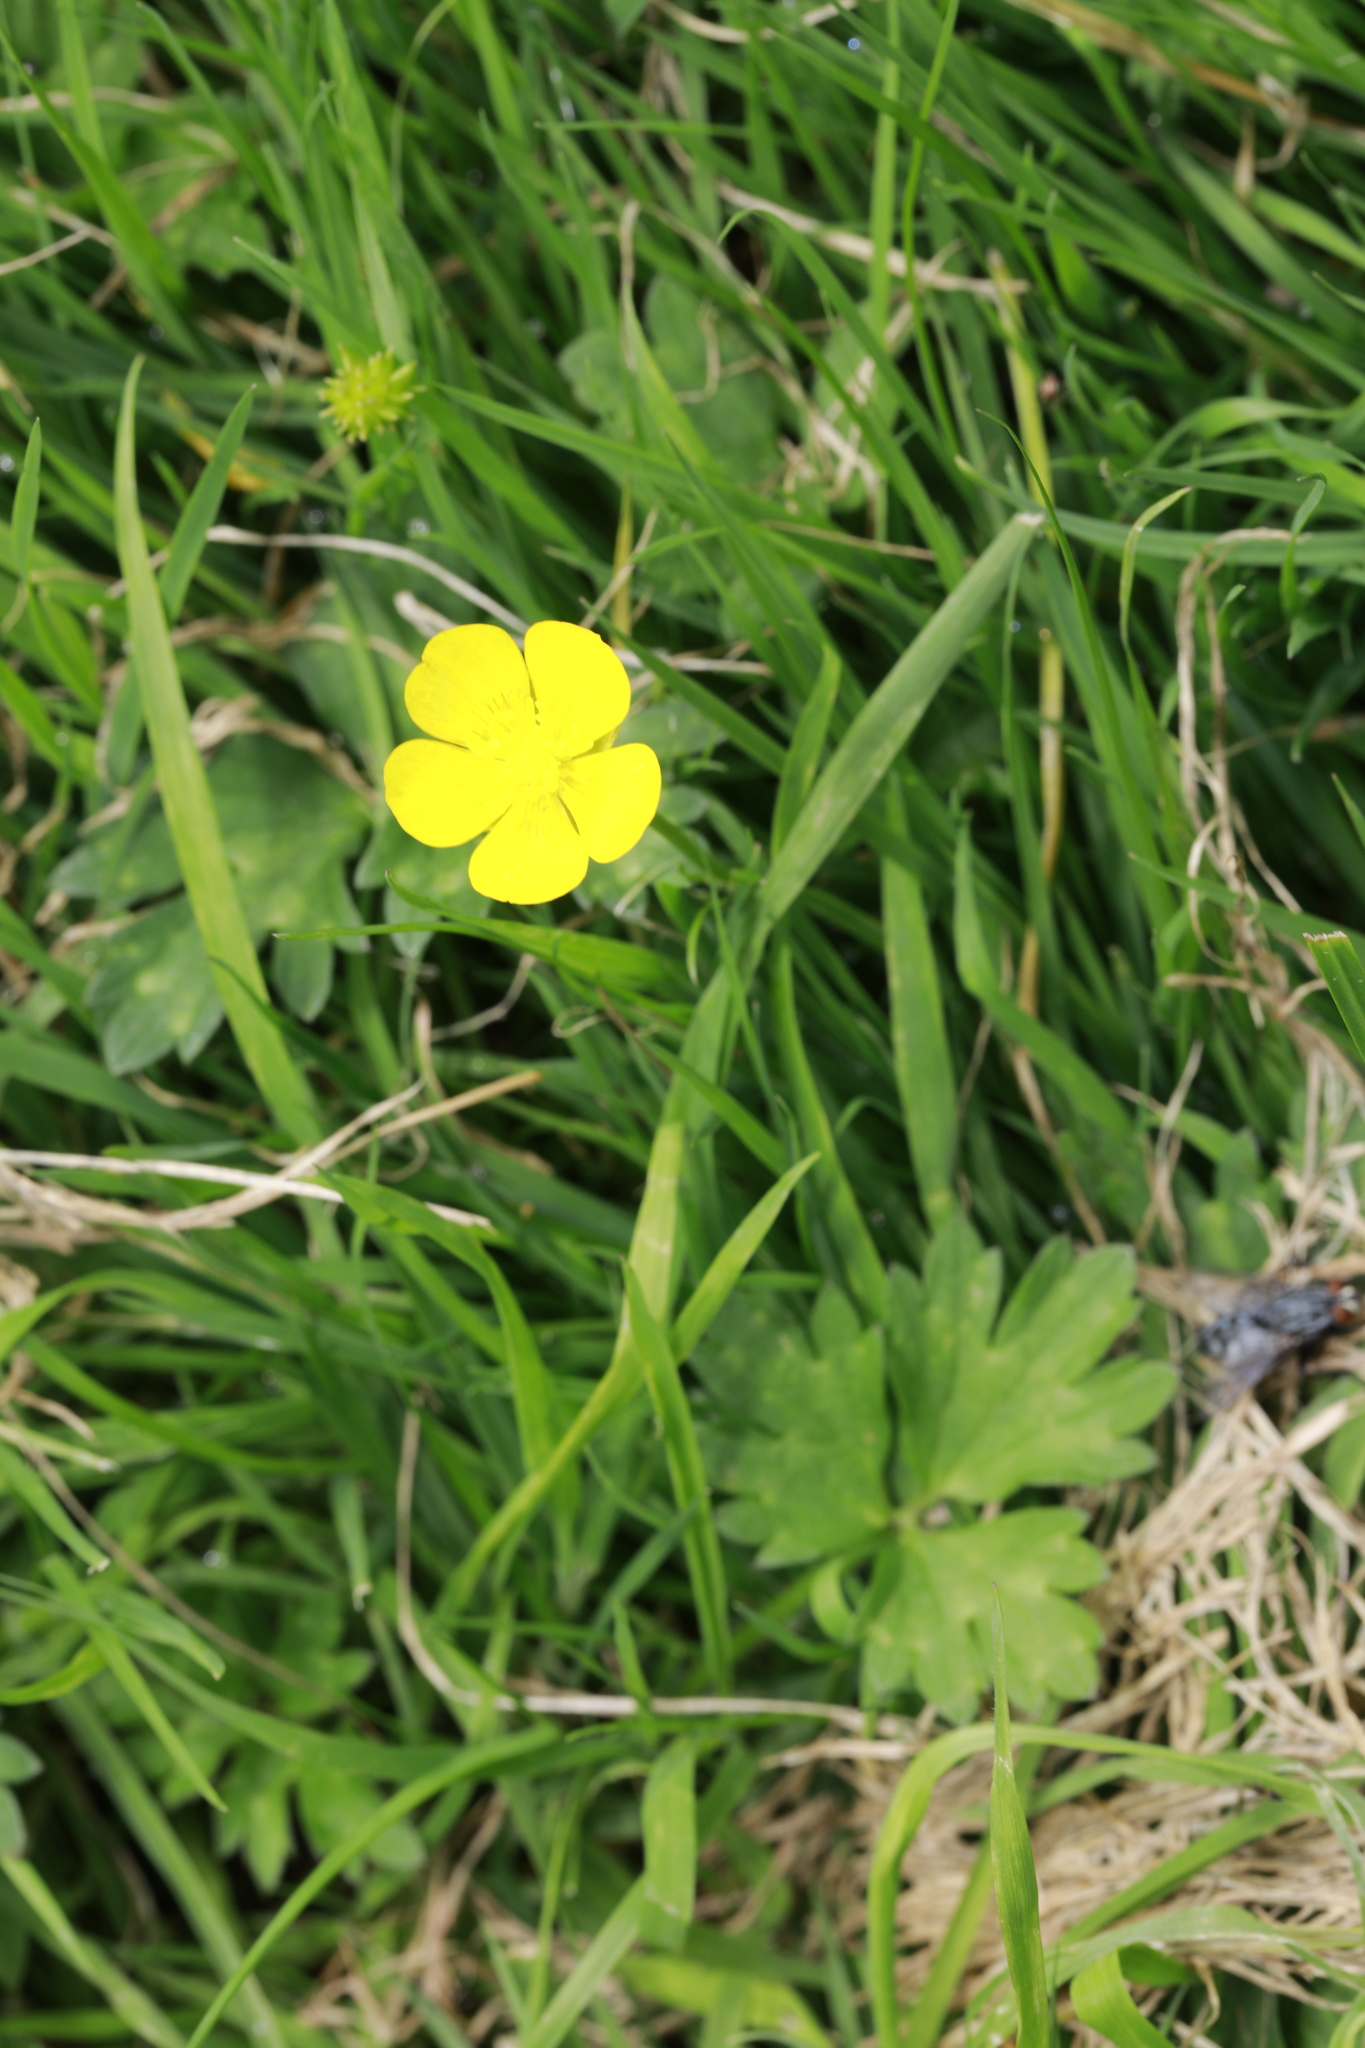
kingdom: Plantae
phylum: Tracheophyta
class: Magnoliopsida
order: Ranunculales
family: Ranunculaceae
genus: Ranunculus
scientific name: Ranunculus repens
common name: Creeping buttercup
